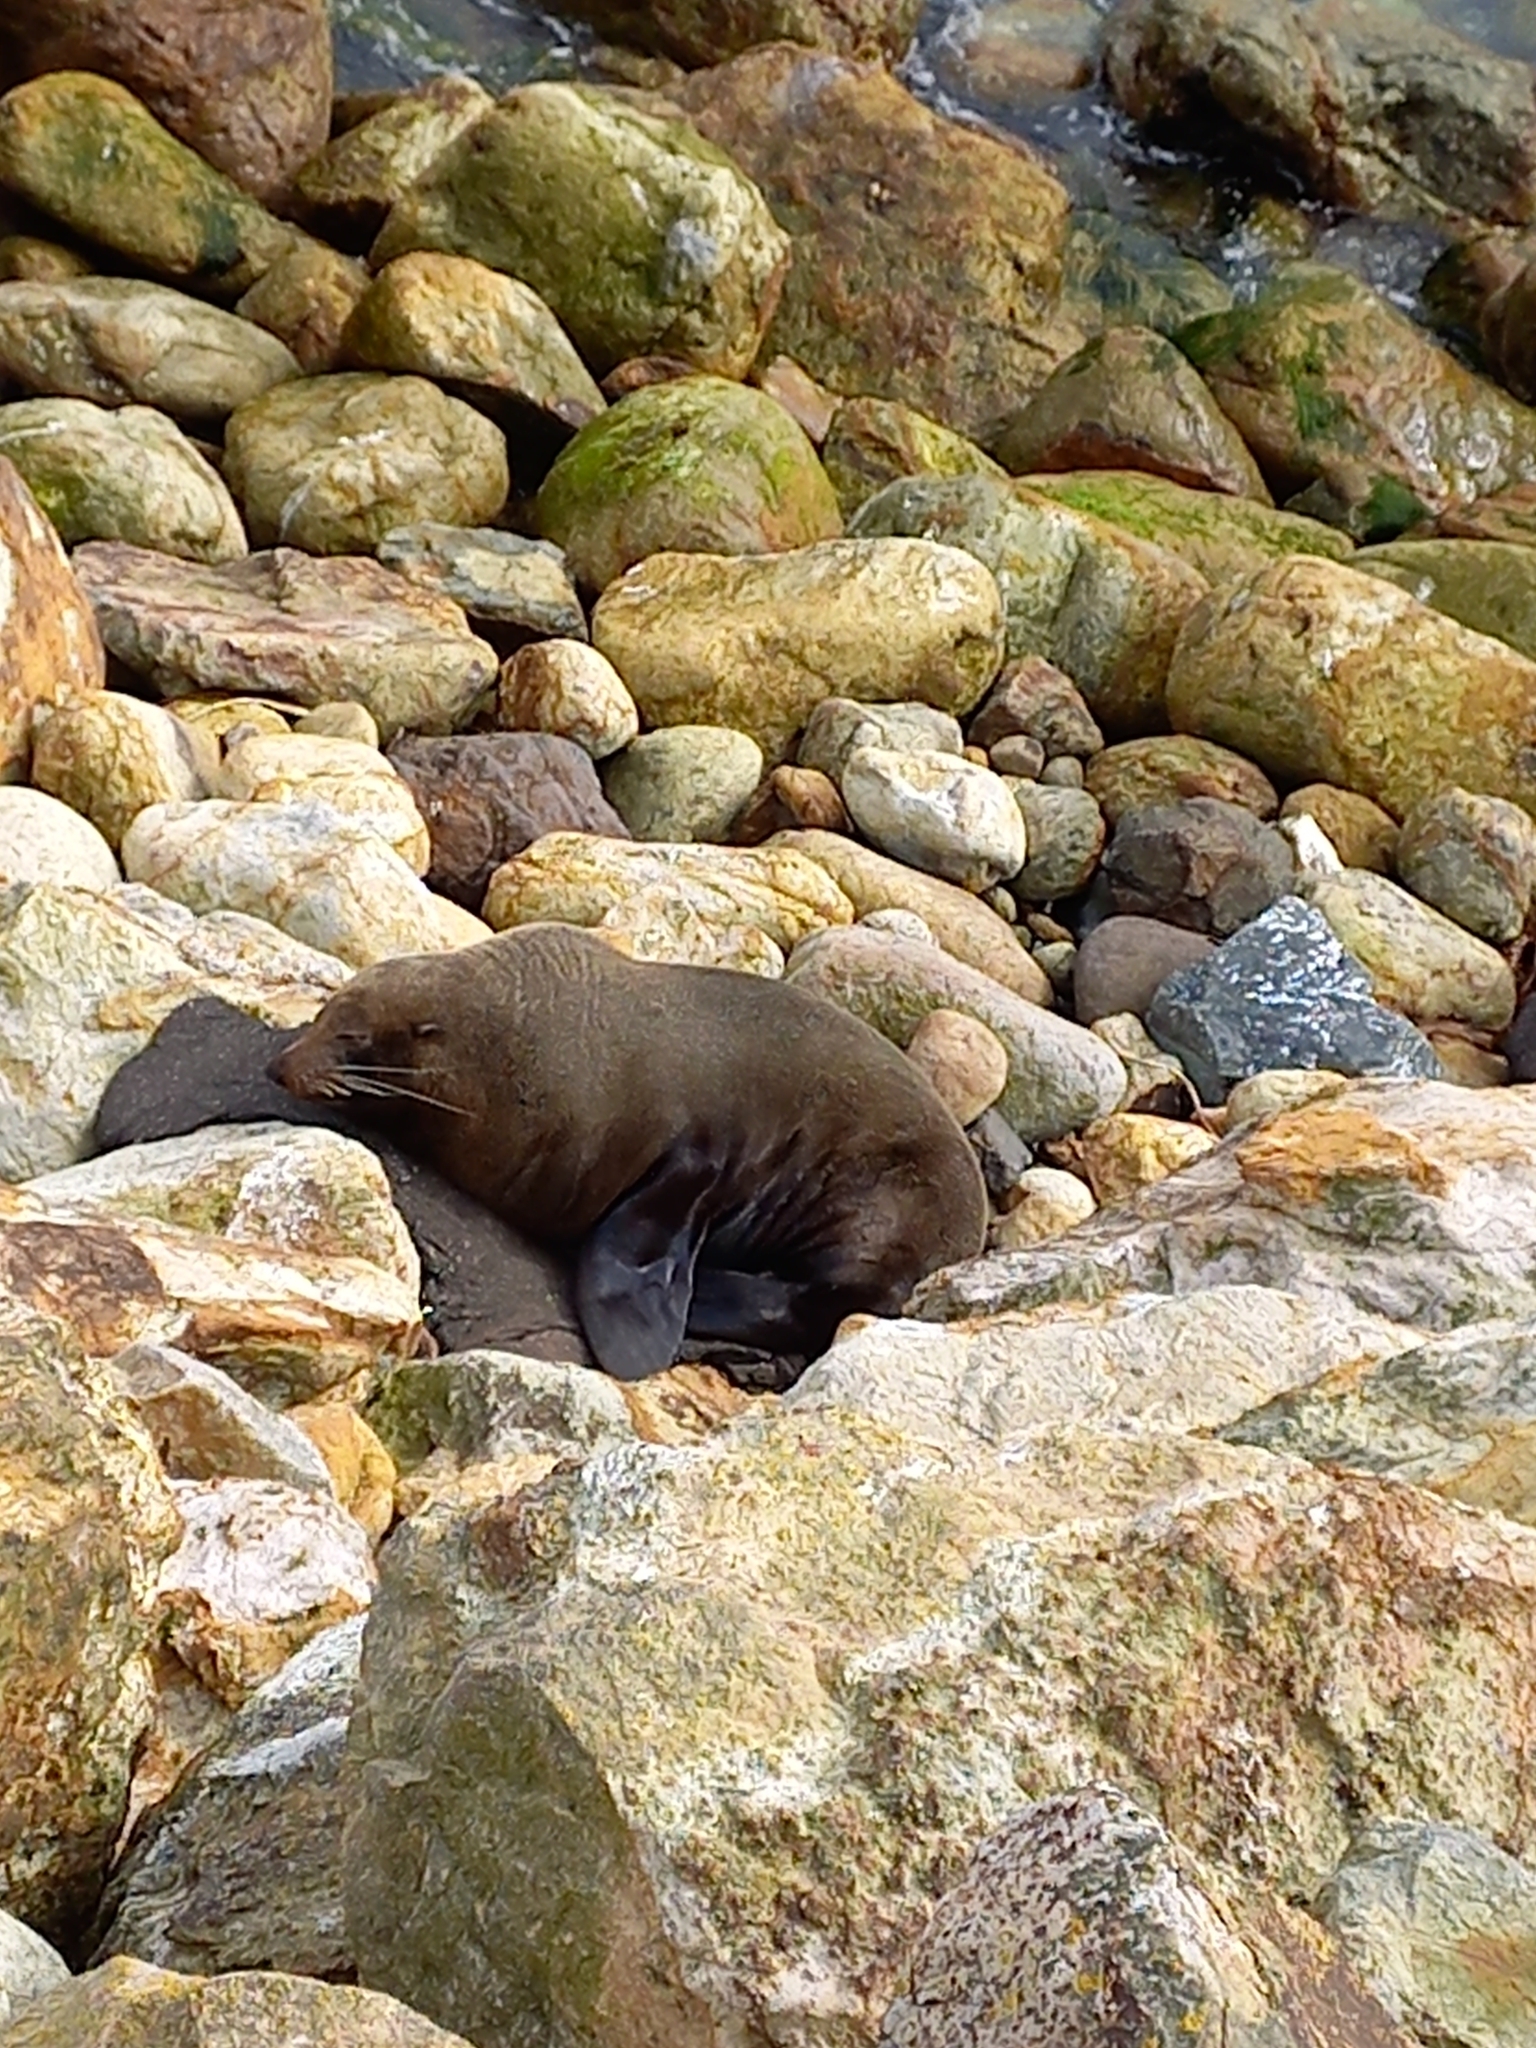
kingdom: Animalia
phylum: Chordata
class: Mammalia
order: Carnivora
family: Otariidae
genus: Arctocephalus
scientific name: Arctocephalus forsteri
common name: New zealand fur seal
